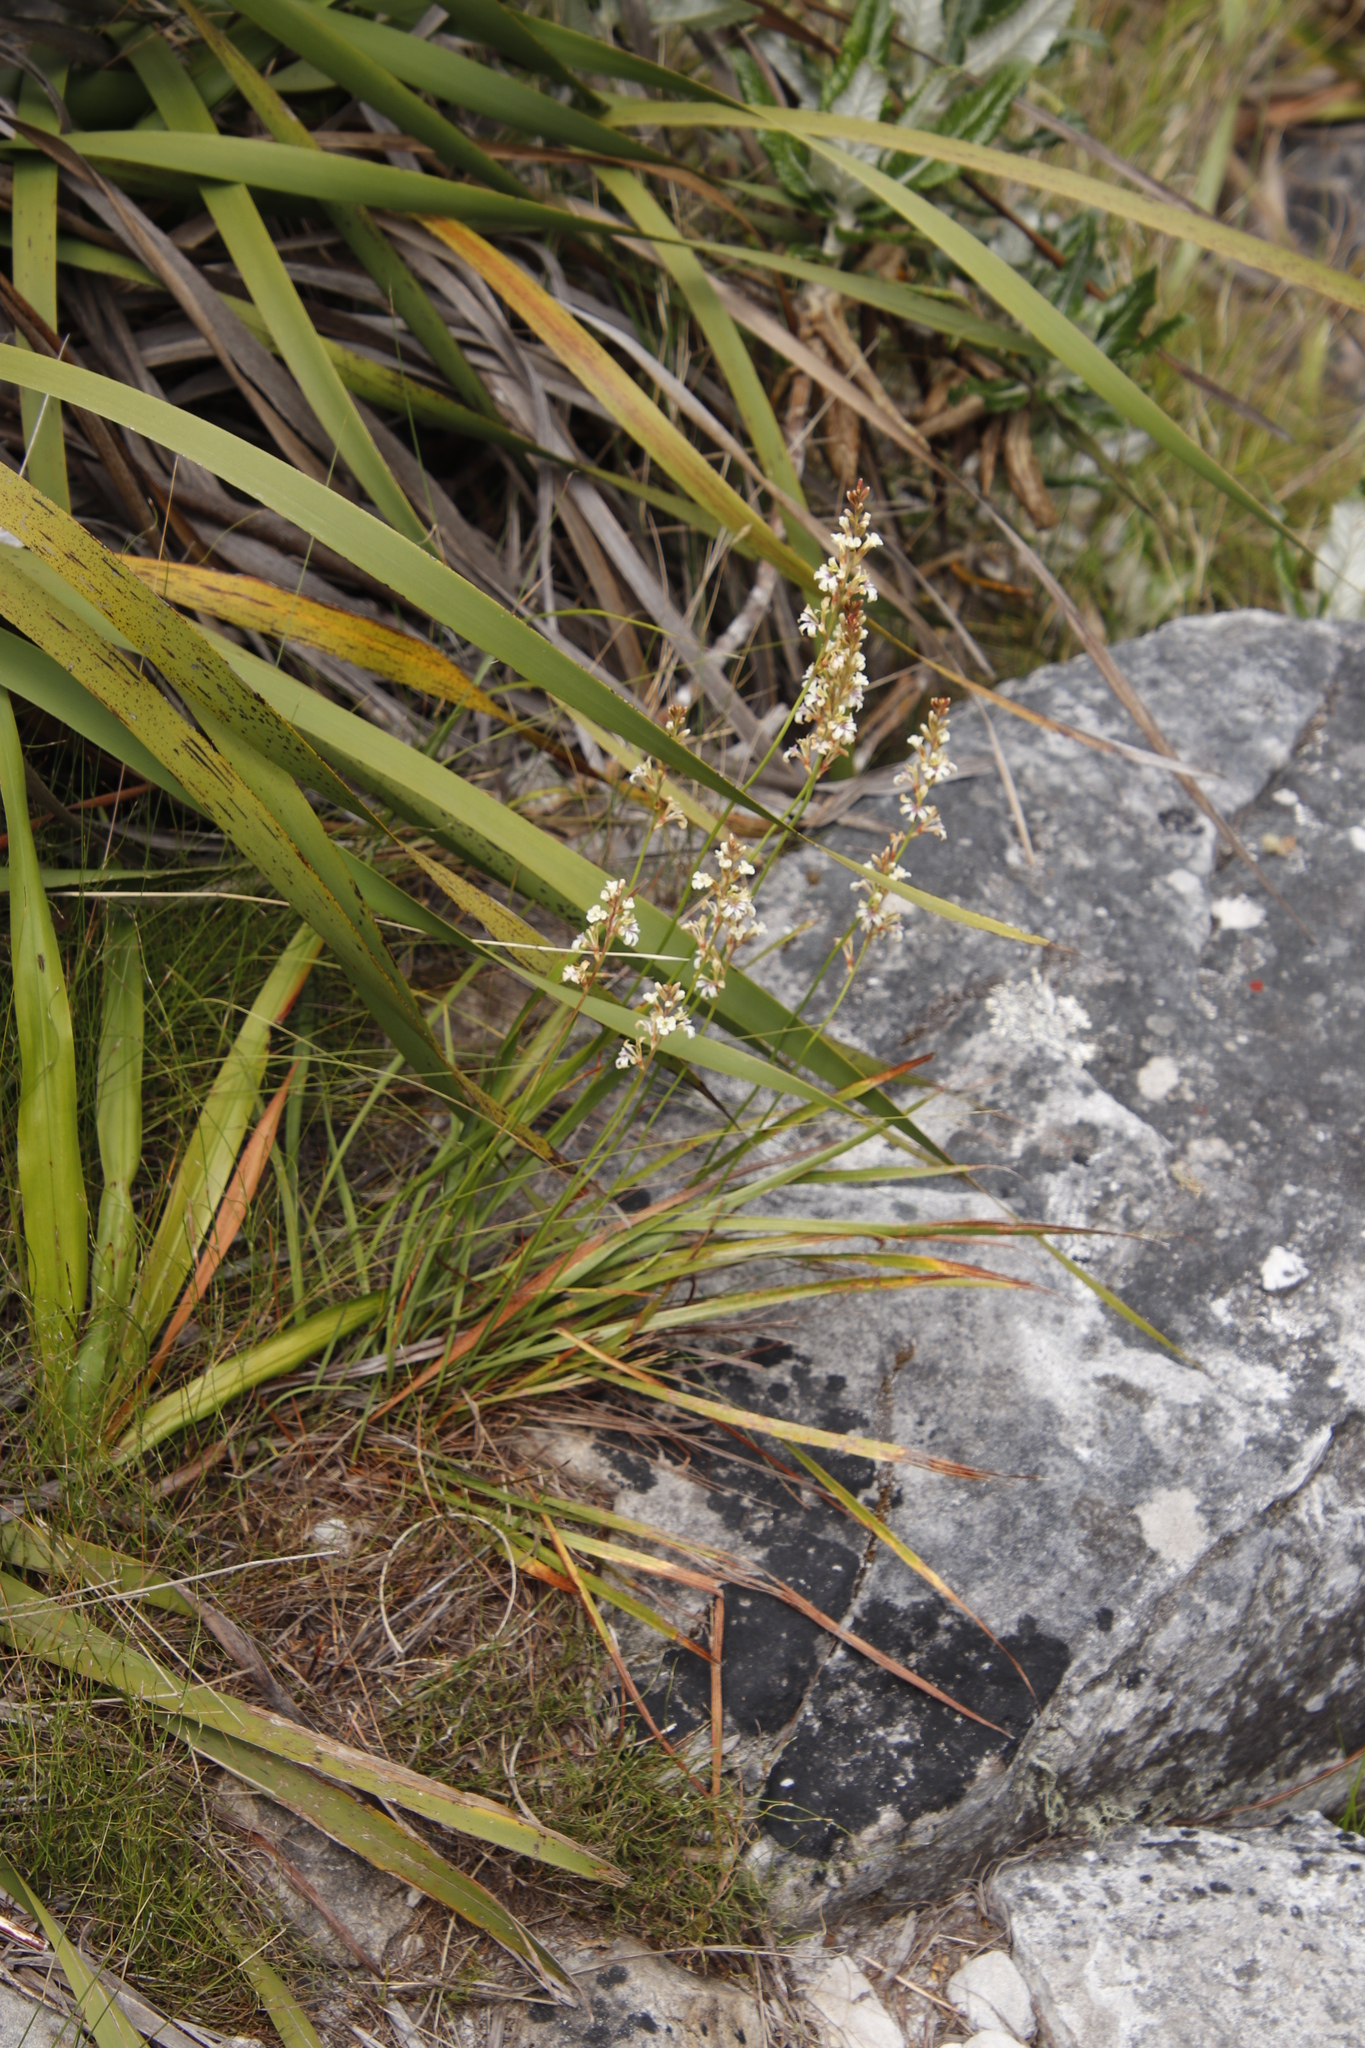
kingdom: Plantae
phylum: Tracheophyta
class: Liliopsida
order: Asparagales
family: Iridaceae
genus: Tritoniopsis
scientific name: Tritoniopsis unguicularis
